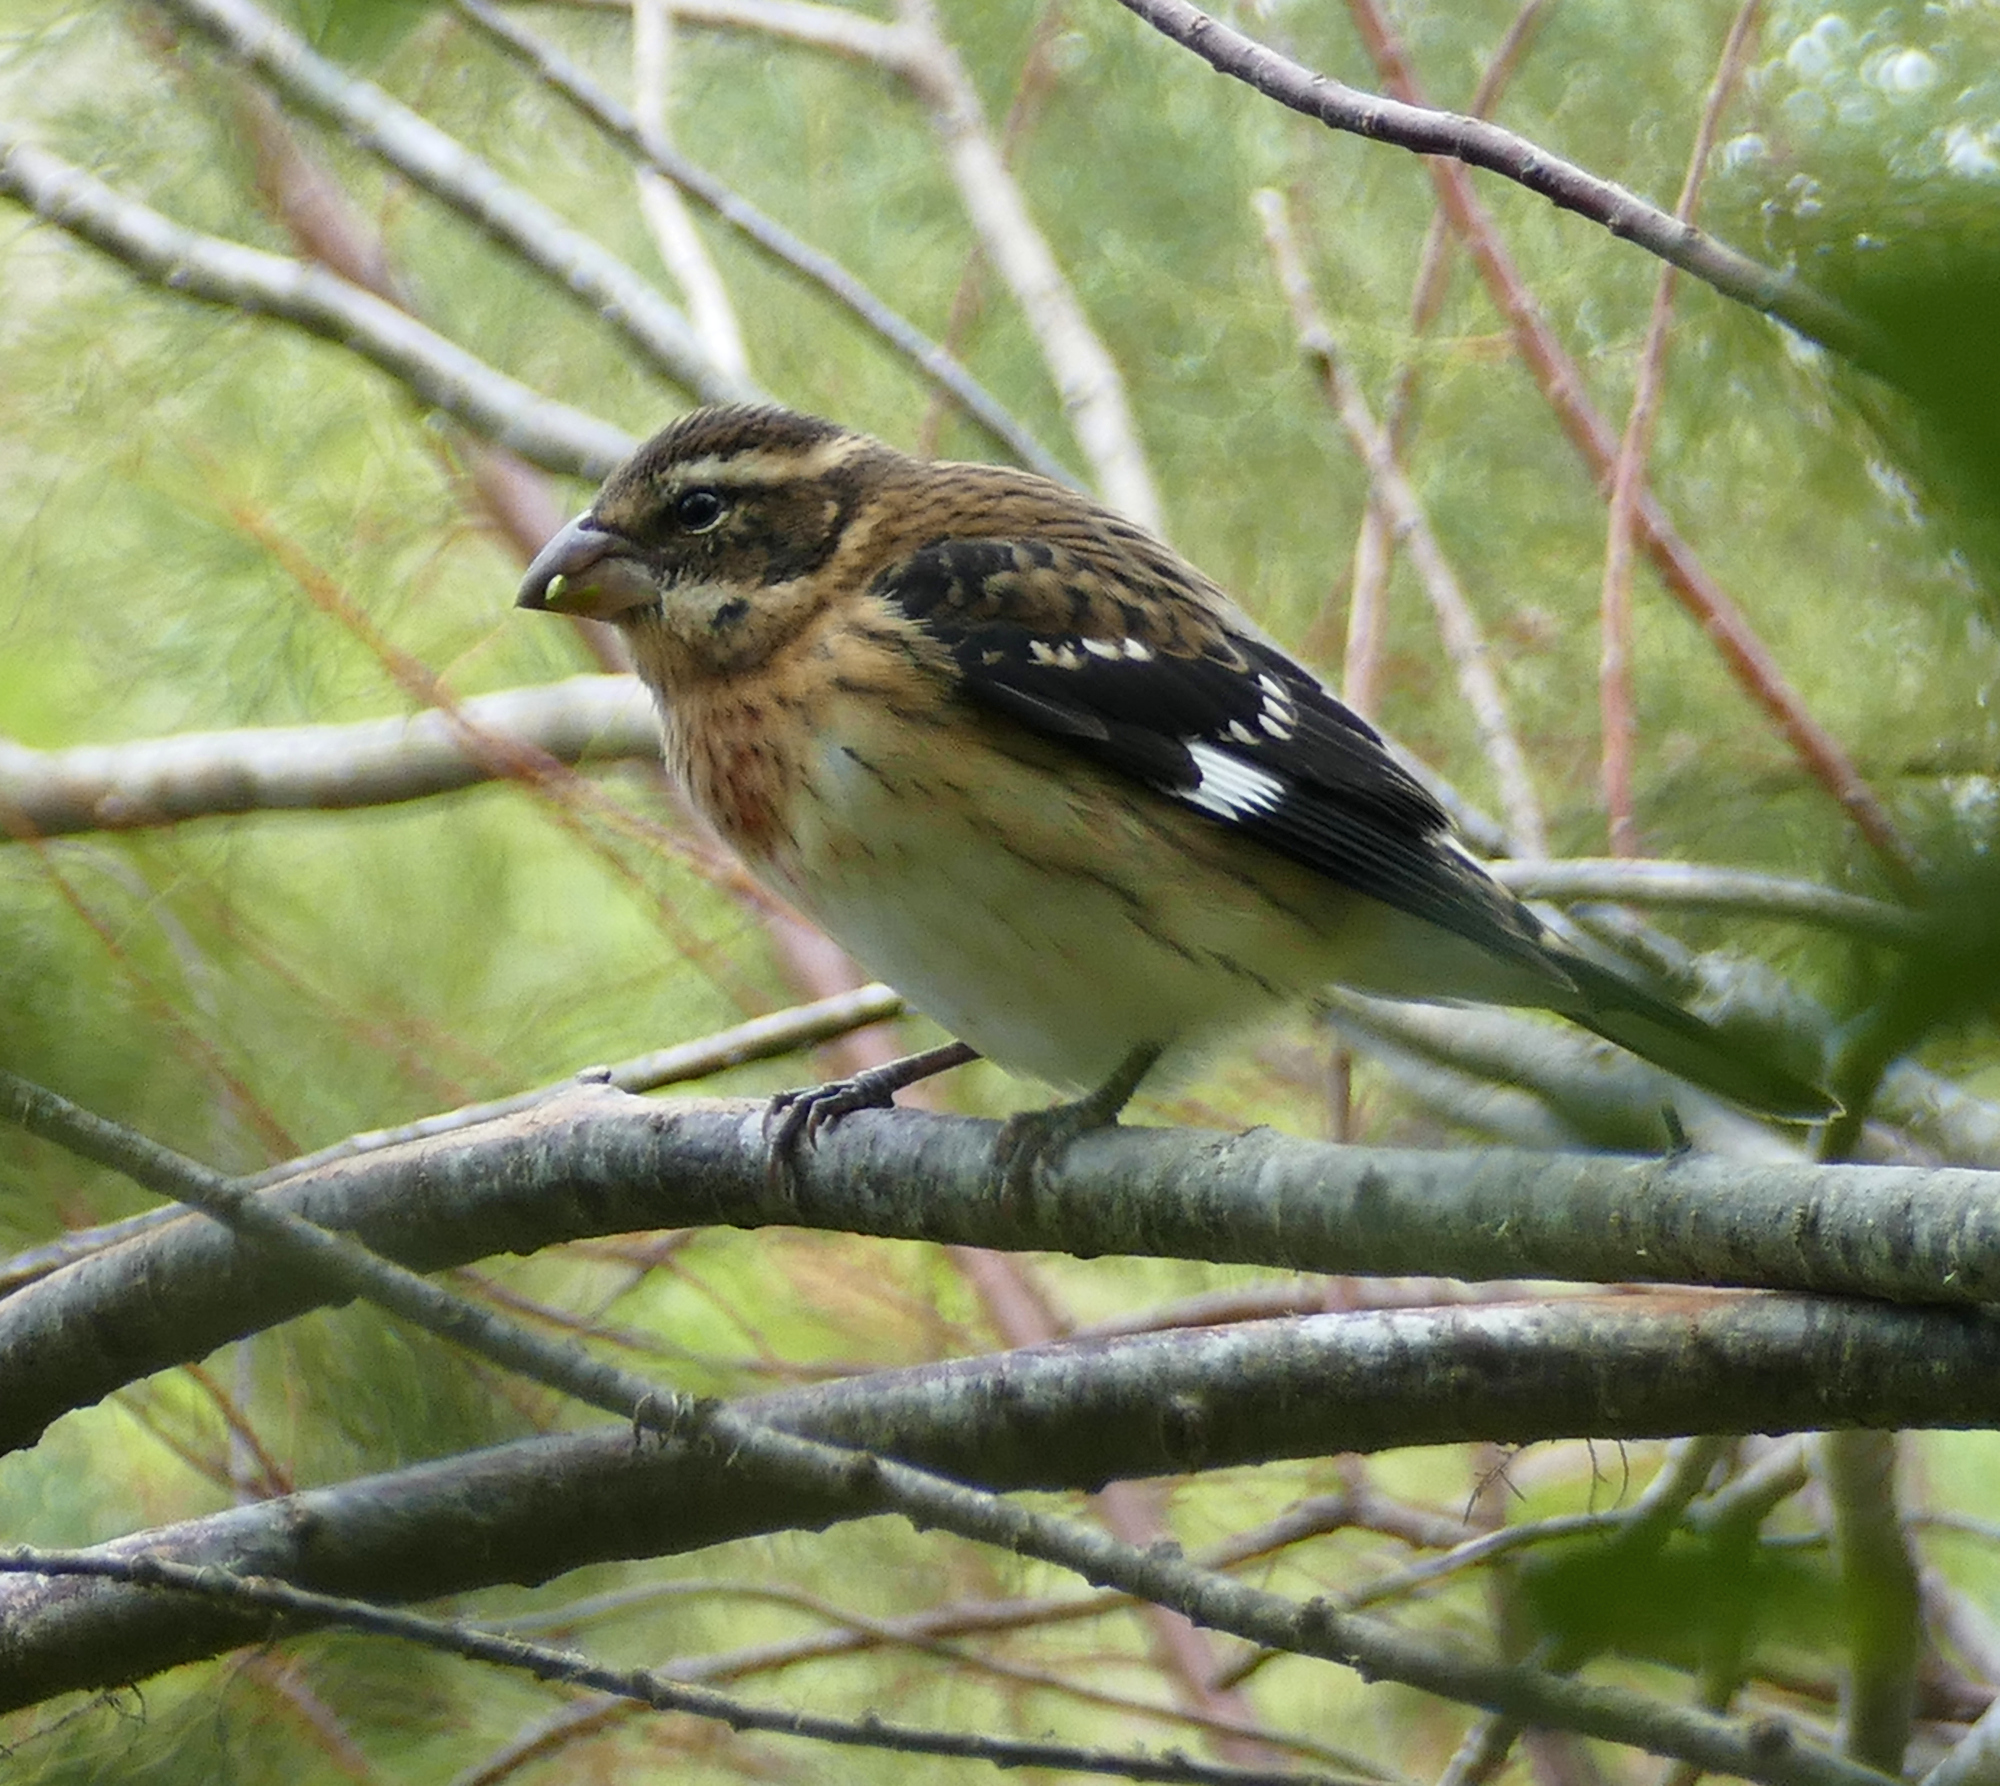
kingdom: Animalia
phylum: Chordata
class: Aves
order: Passeriformes
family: Cardinalidae
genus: Pheucticus
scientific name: Pheucticus ludovicianus
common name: Rose-breasted grosbeak
